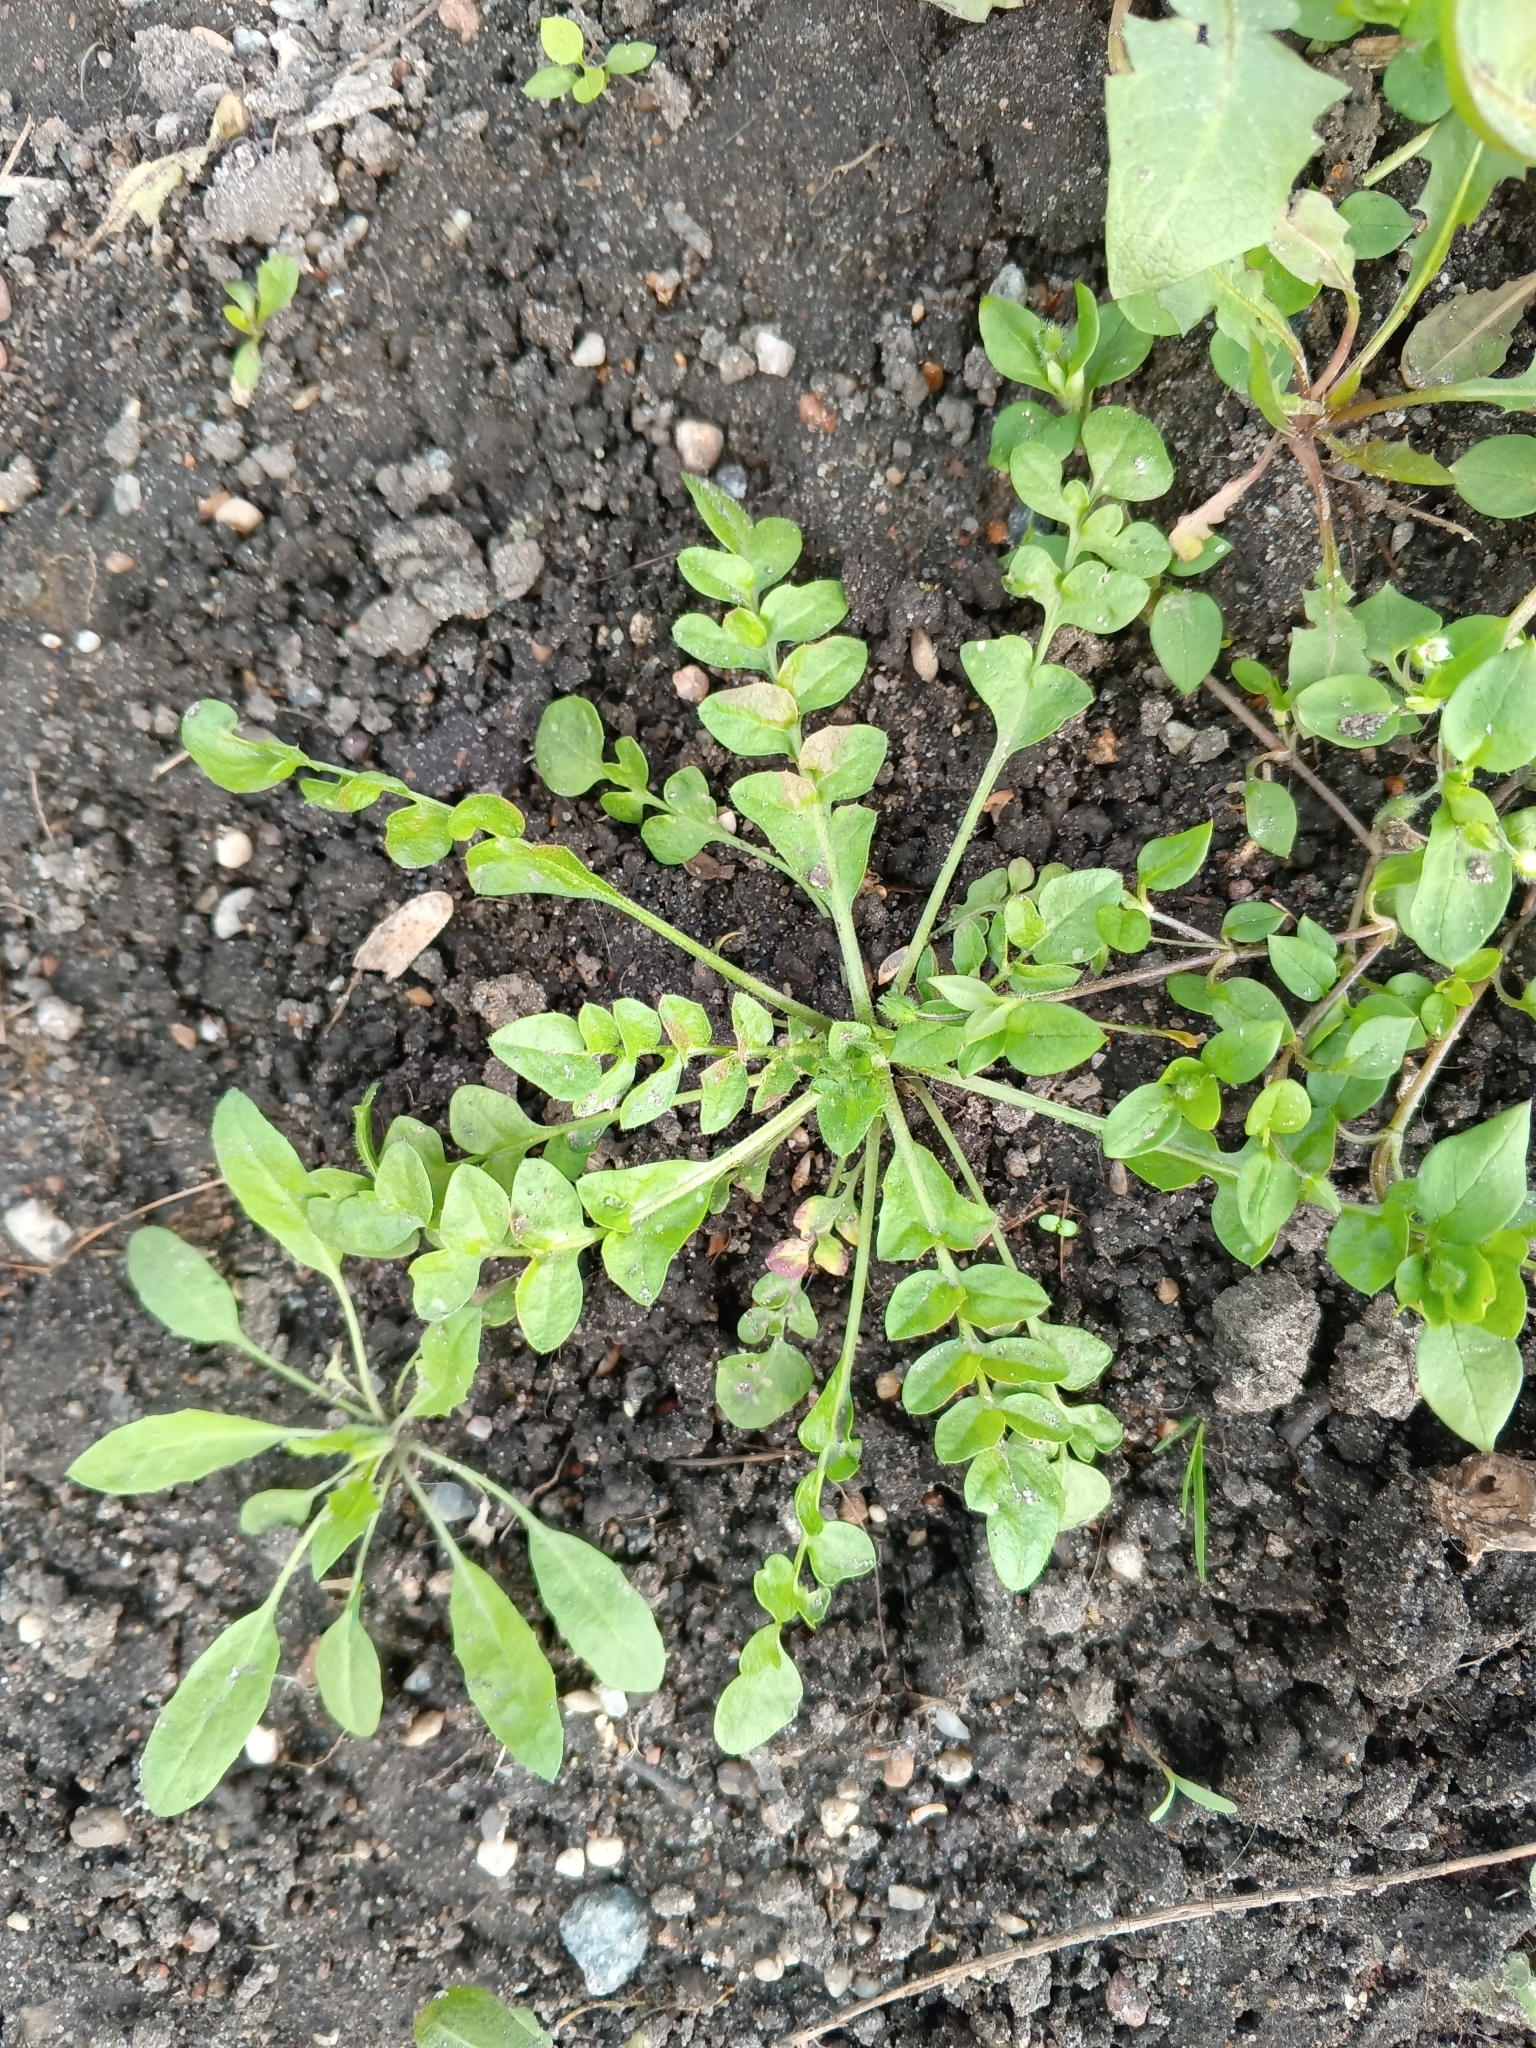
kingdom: Plantae
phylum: Tracheophyta
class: Magnoliopsida
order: Brassicales
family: Brassicaceae
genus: Capsella
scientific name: Capsella bursa-pastoris
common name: Shepherd's purse
